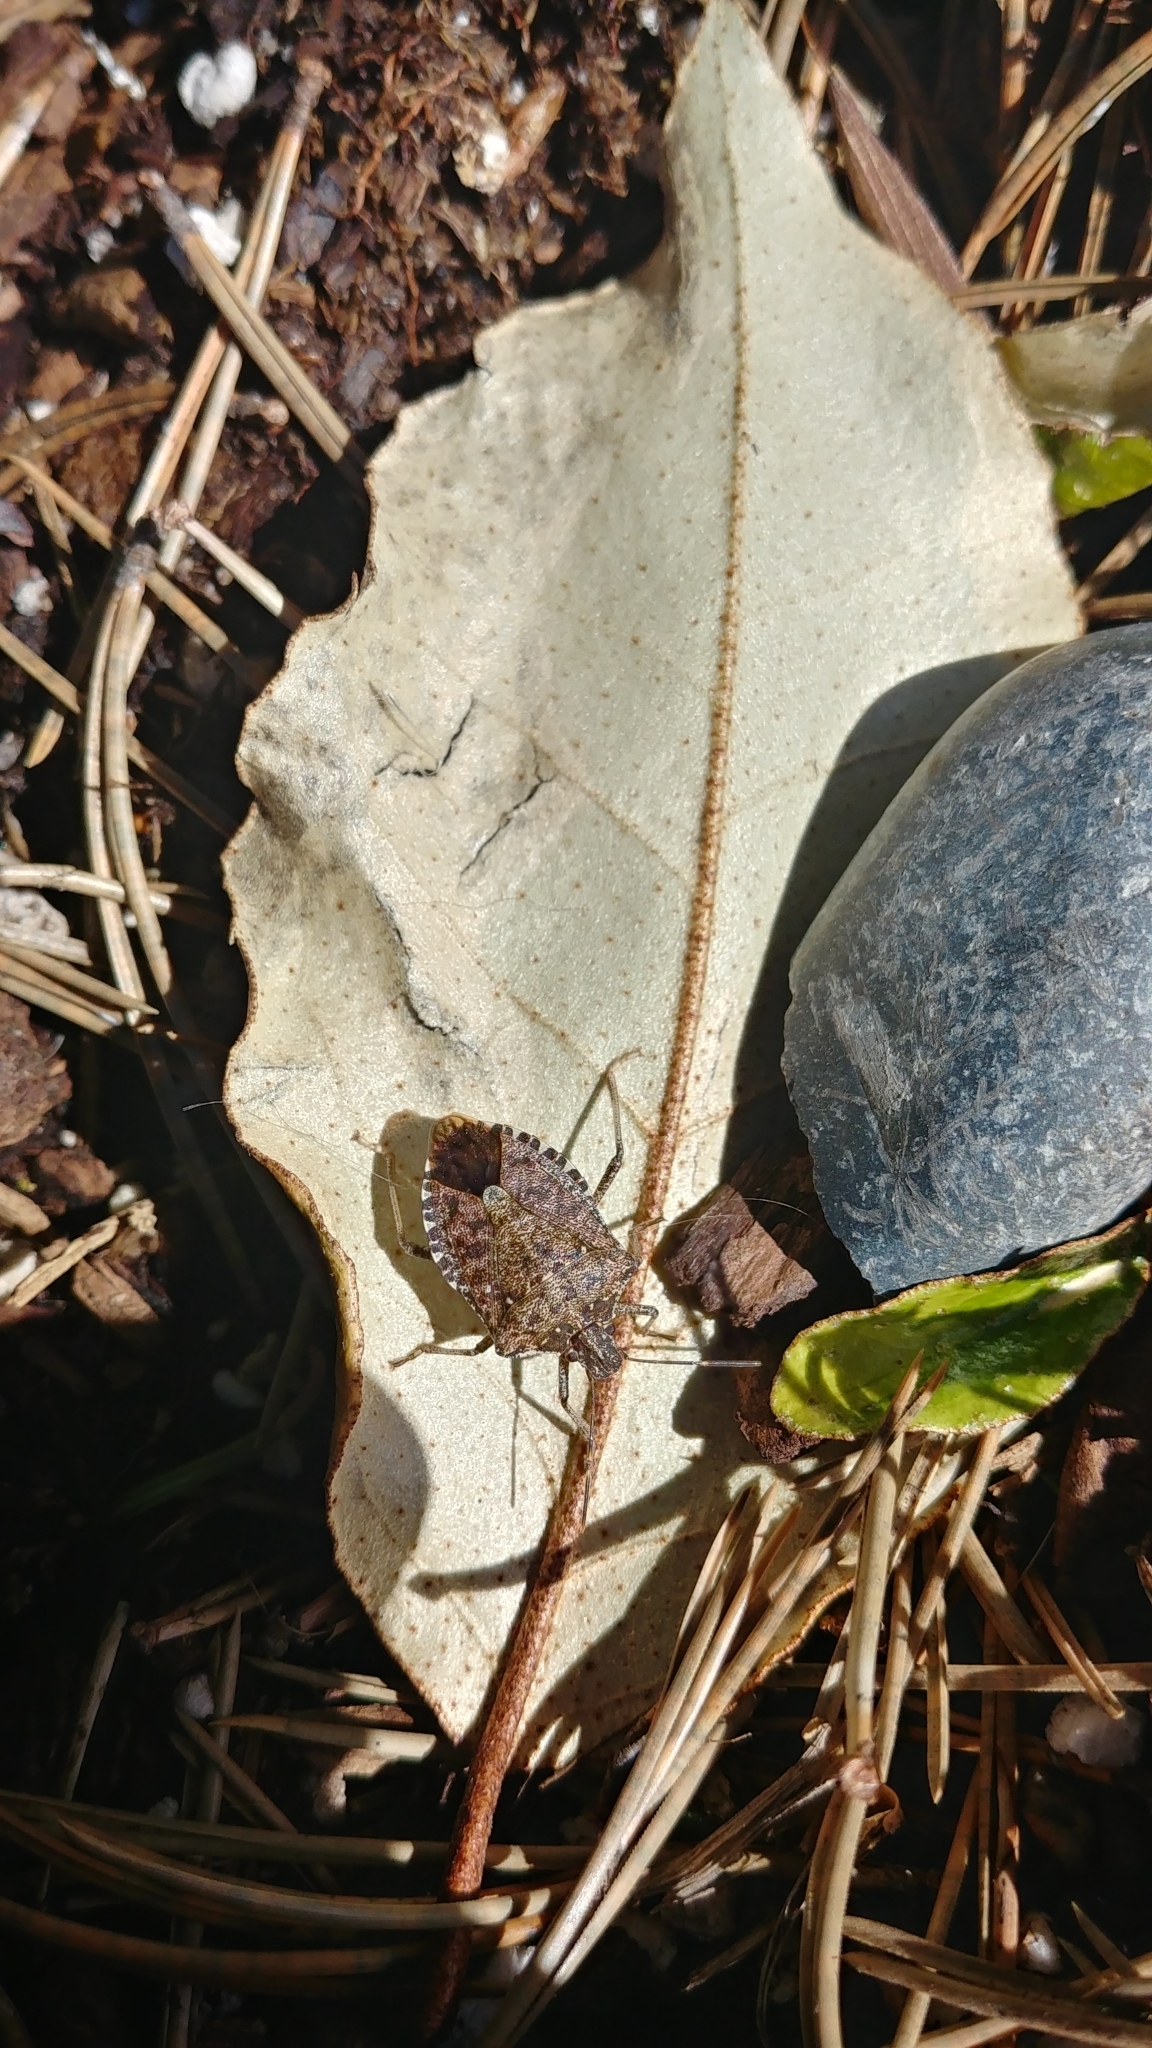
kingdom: Animalia
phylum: Arthropoda
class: Insecta
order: Hemiptera
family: Pentatomidae
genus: Halyomorpha
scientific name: Halyomorpha halys
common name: Brown marmorated stink bug
